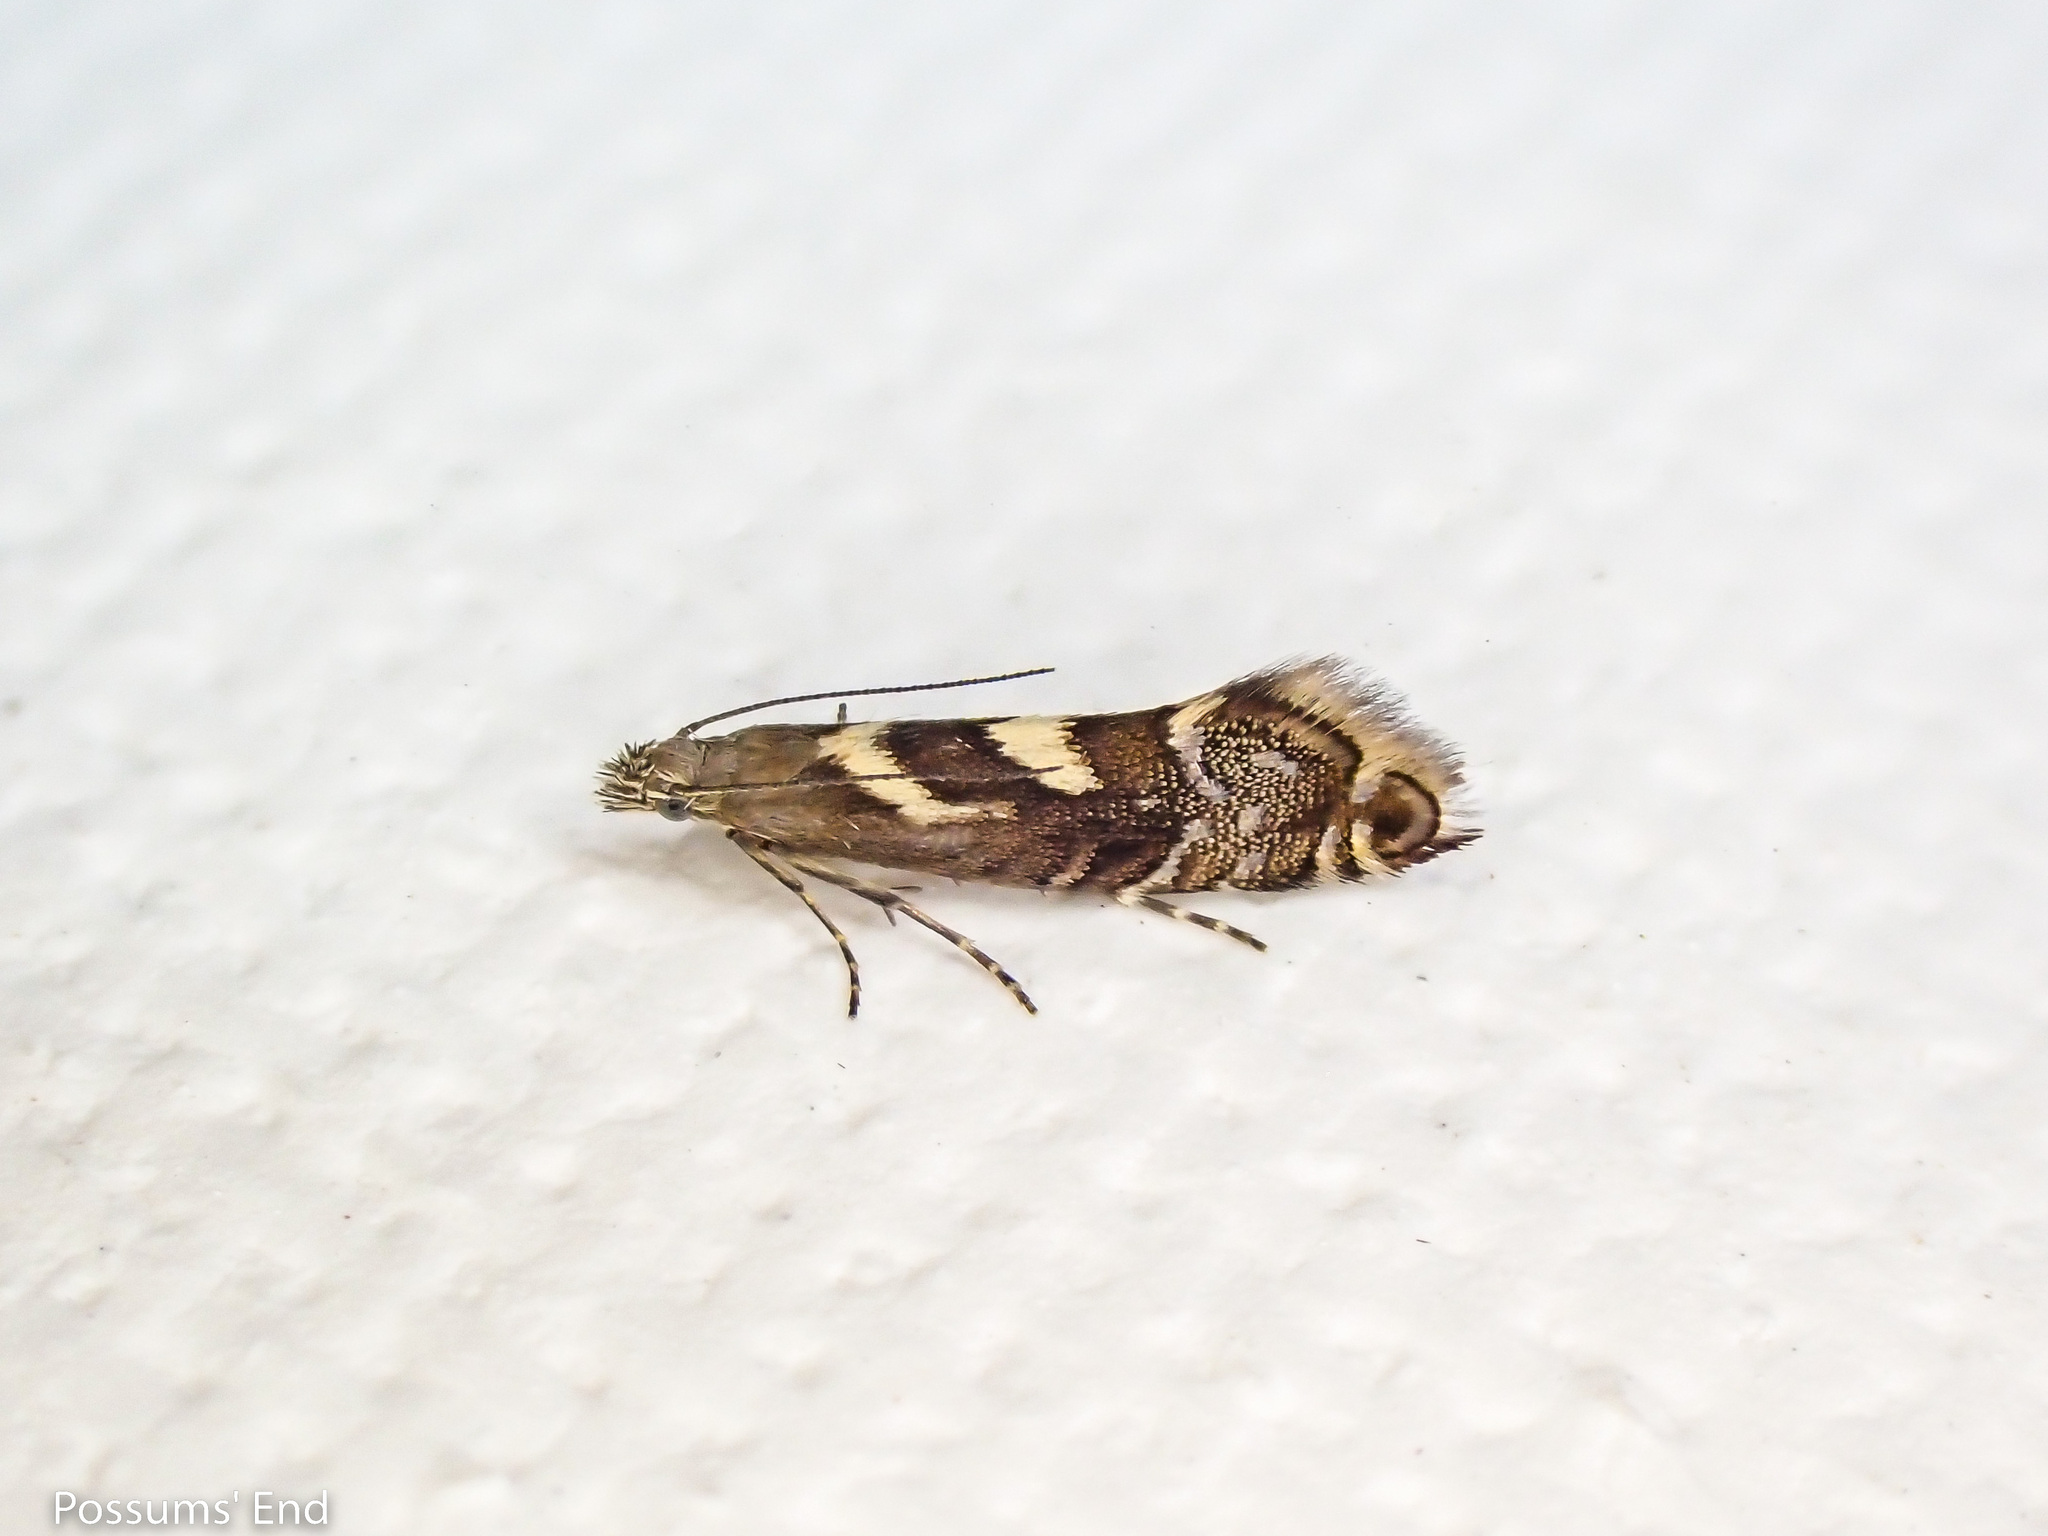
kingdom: Animalia
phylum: Arthropoda
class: Insecta
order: Lepidoptera
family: Glyphipterigidae
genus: Glyphipterix
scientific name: Glyphipterix asteronota
